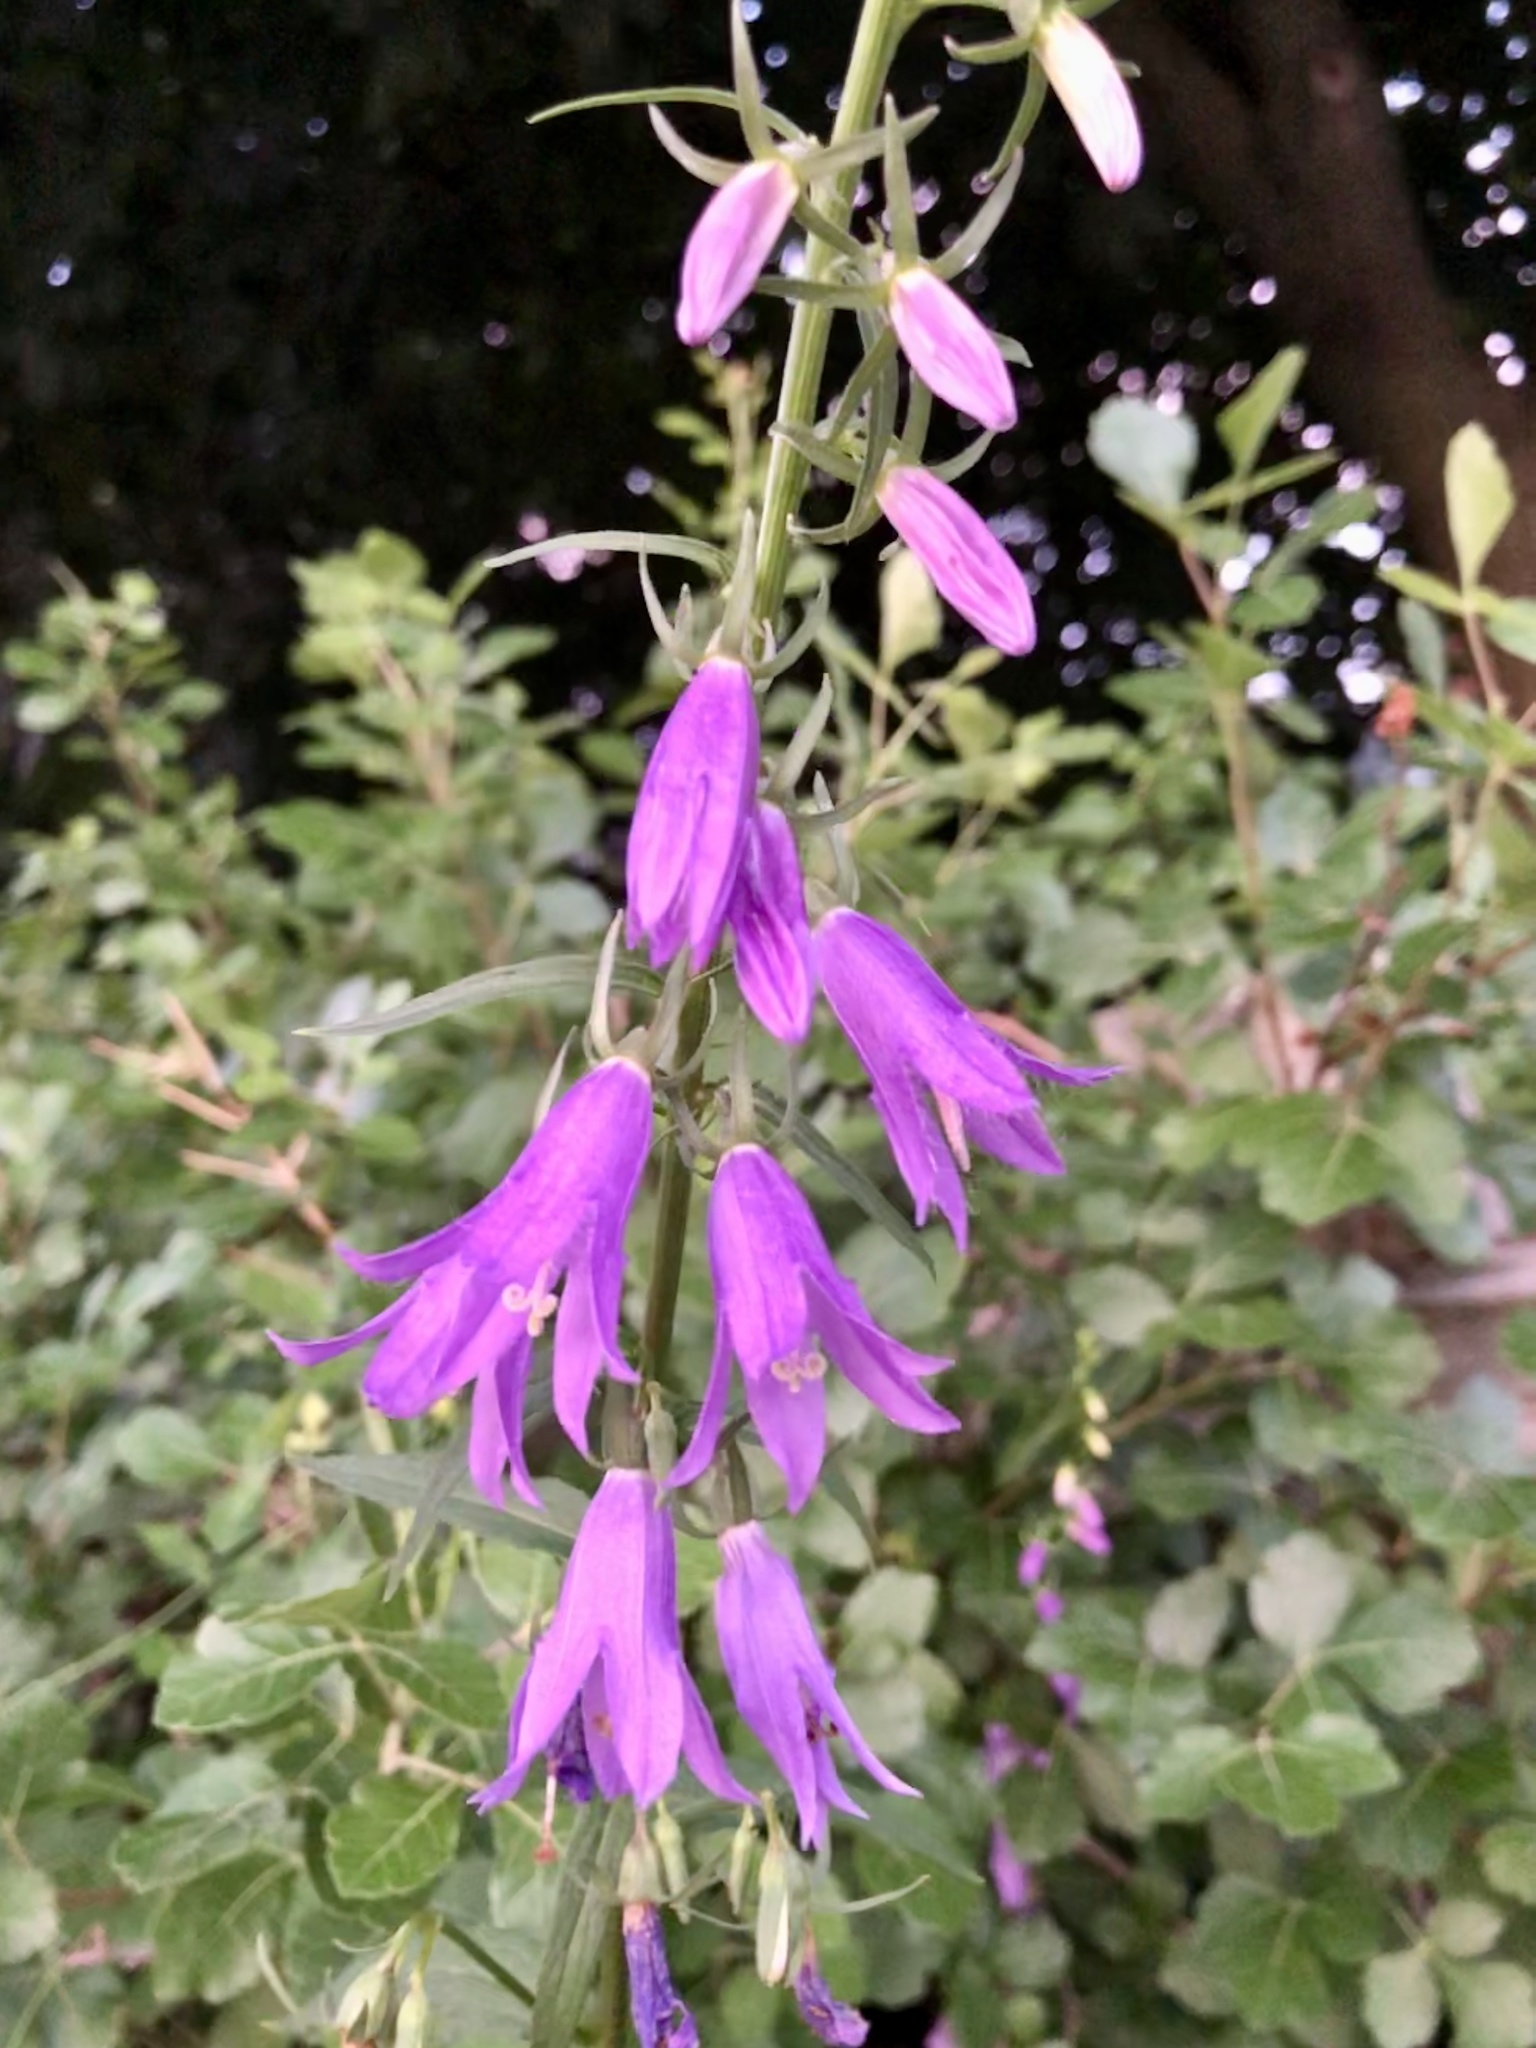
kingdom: Plantae
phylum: Tracheophyta
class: Magnoliopsida
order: Asterales
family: Campanulaceae
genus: Campanula
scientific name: Campanula rapunculoides
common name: Creeping bellflower
